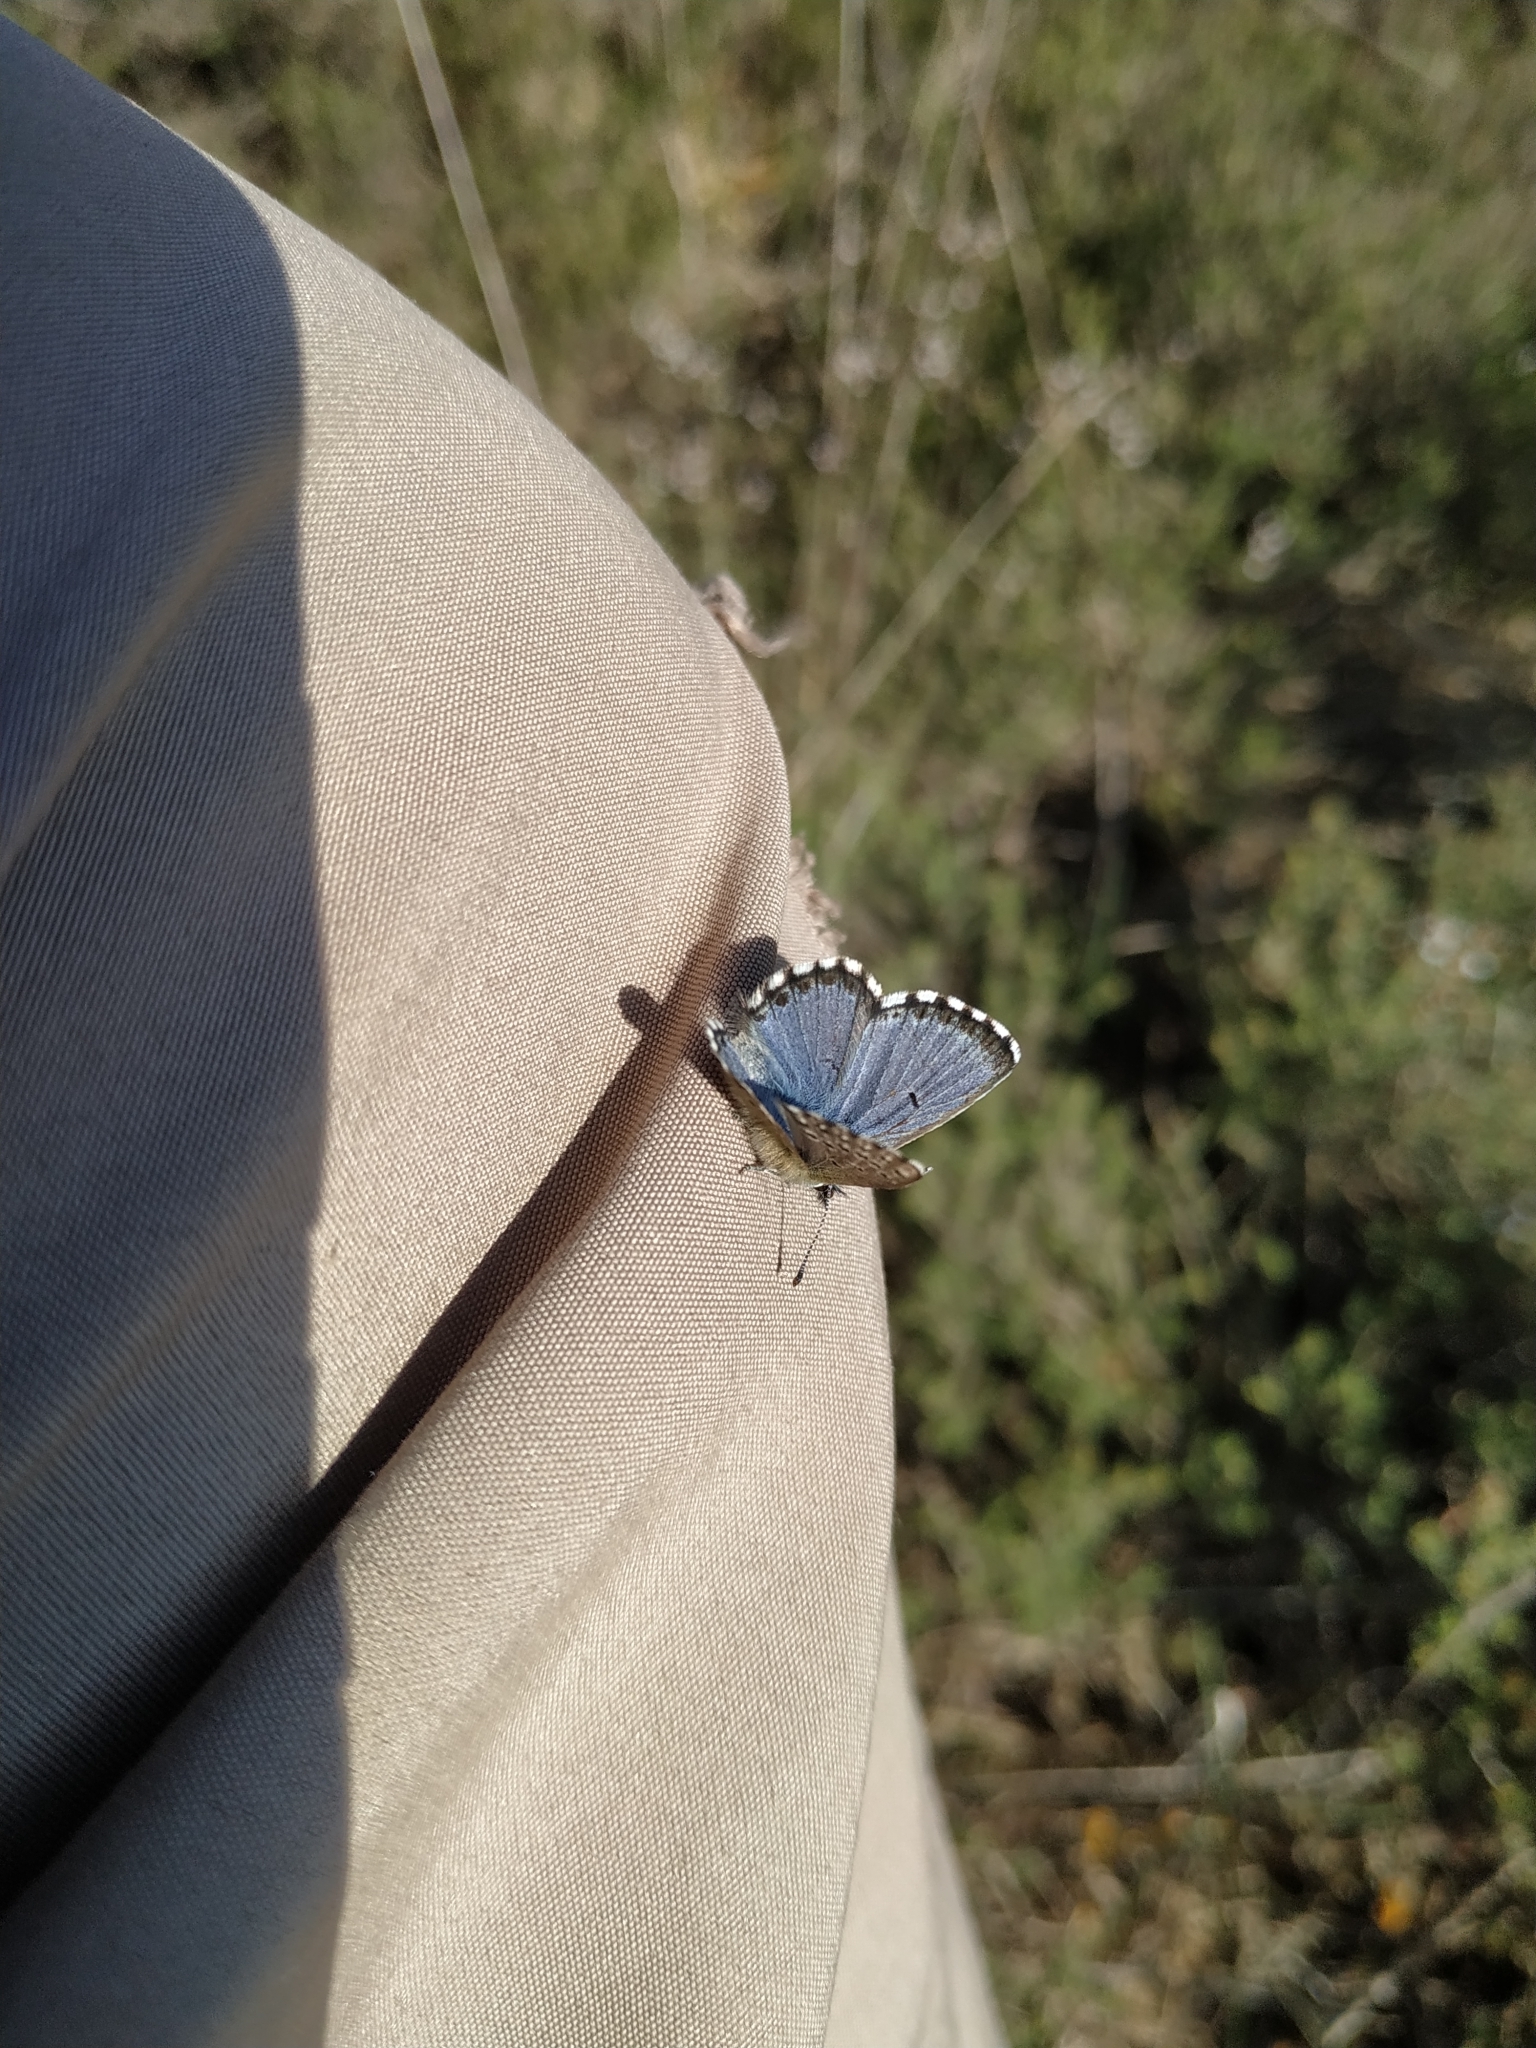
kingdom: Animalia
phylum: Arthropoda
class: Insecta
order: Lepidoptera
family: Lycaenidae
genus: Pseudophilotes
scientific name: Pseudophilotes baton
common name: Baton blue
